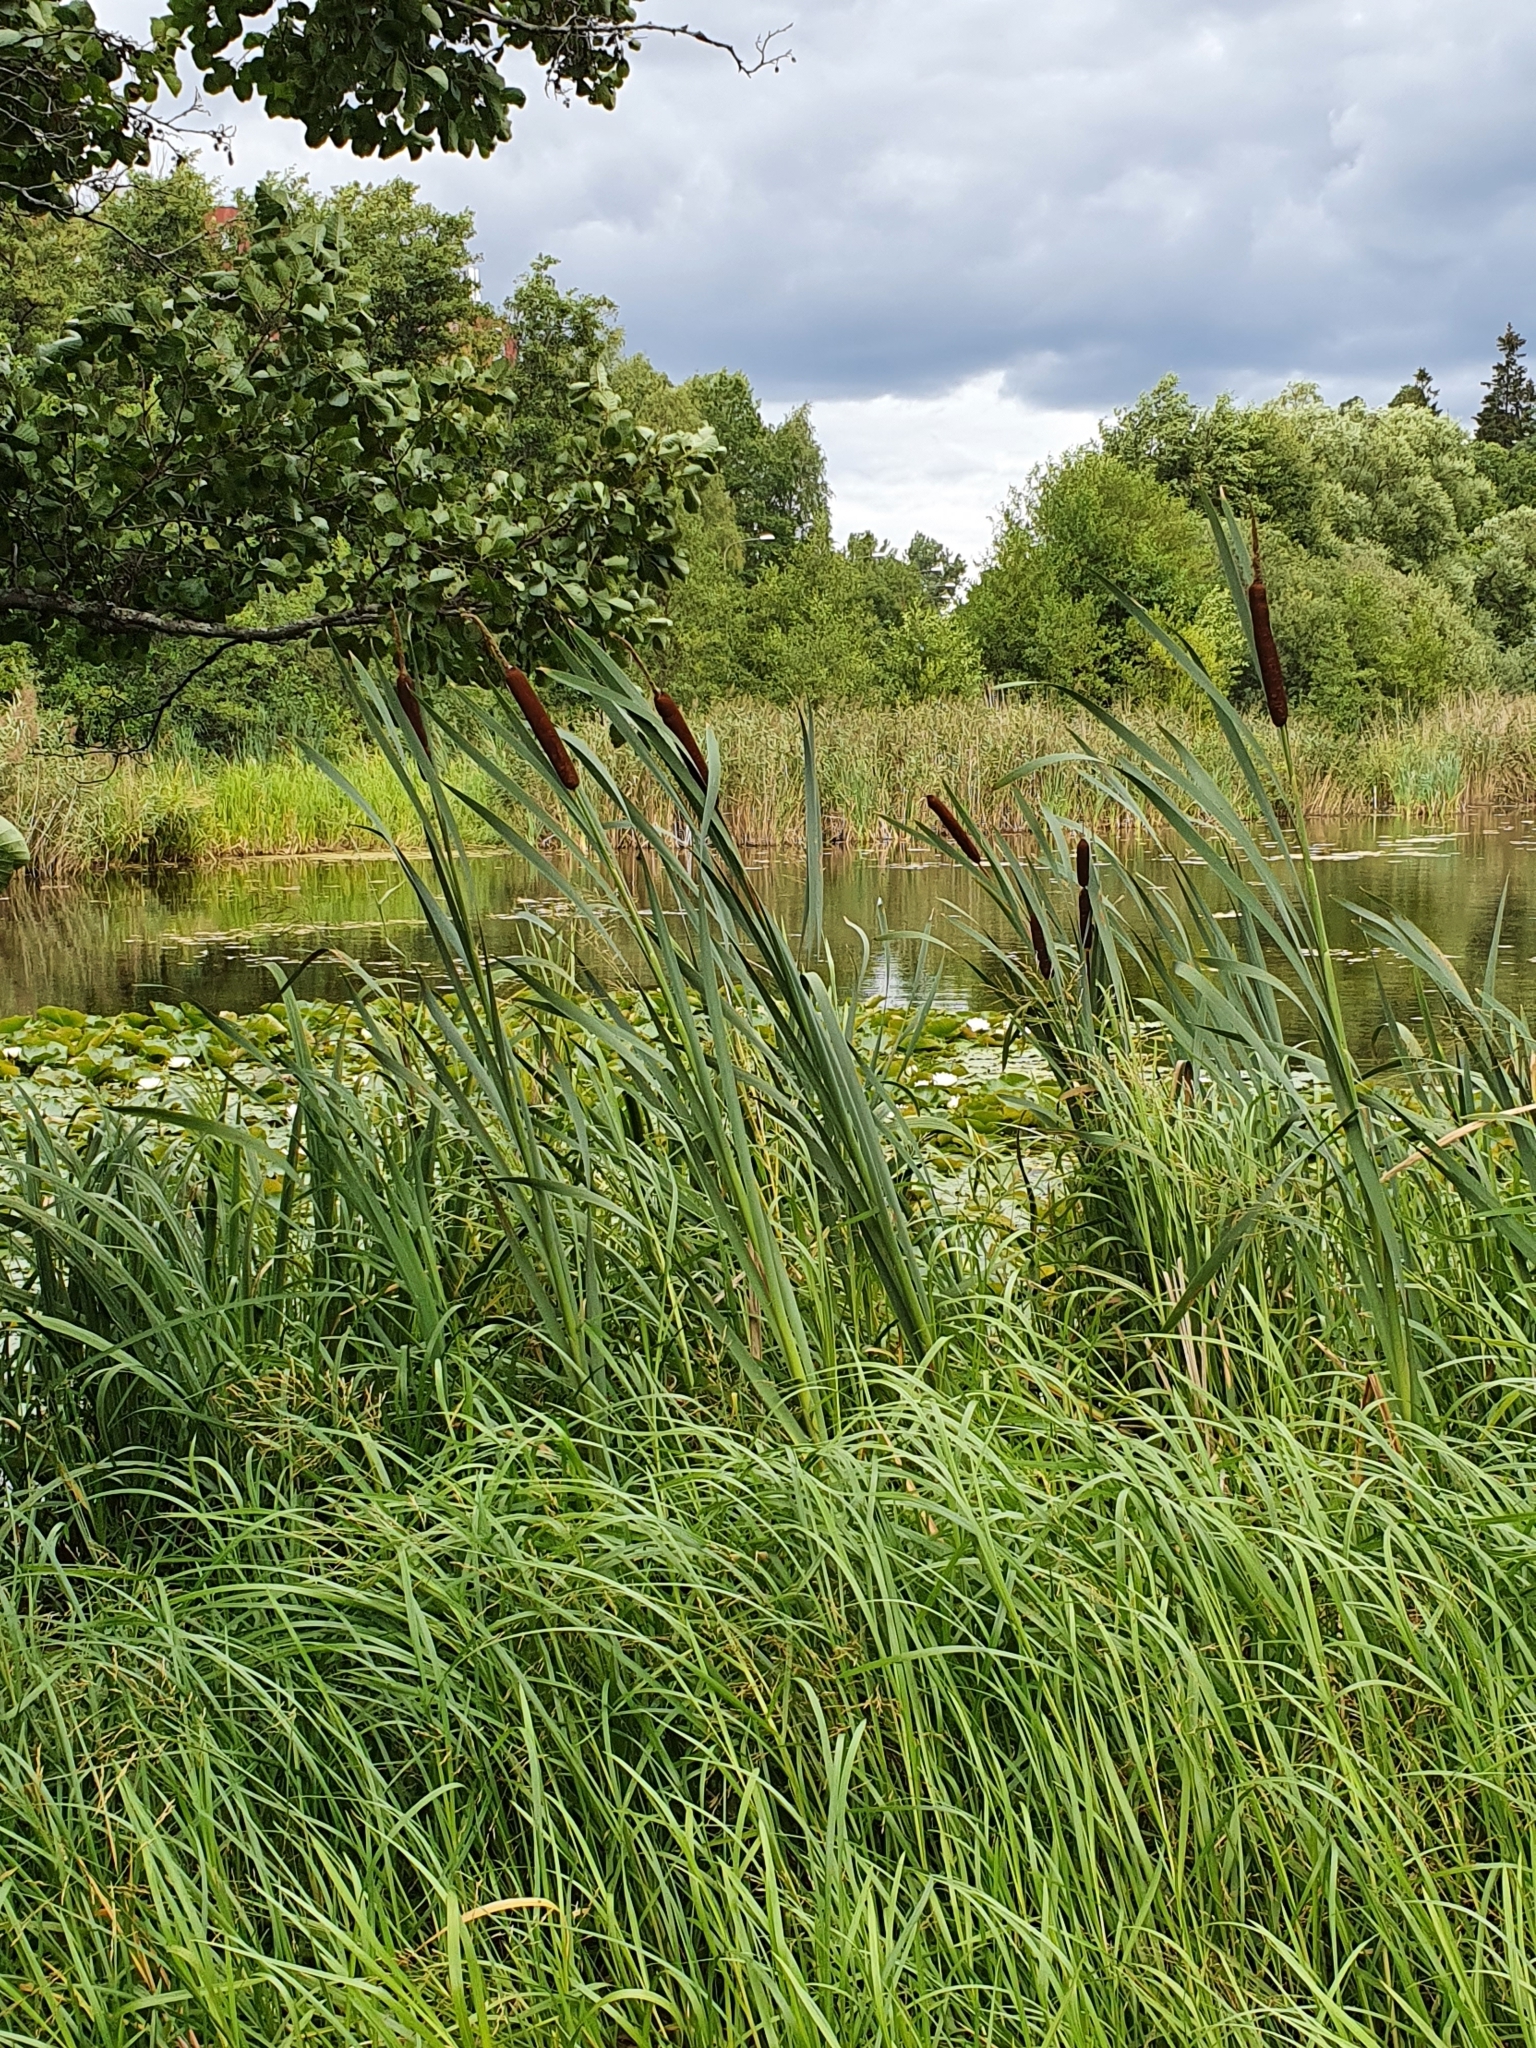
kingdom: Plantae
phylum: Tracheophyta
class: Liliopsida
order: Poales
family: Typhaceae
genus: Typha
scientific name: Typha latifolia
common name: Broadleaf cattail
